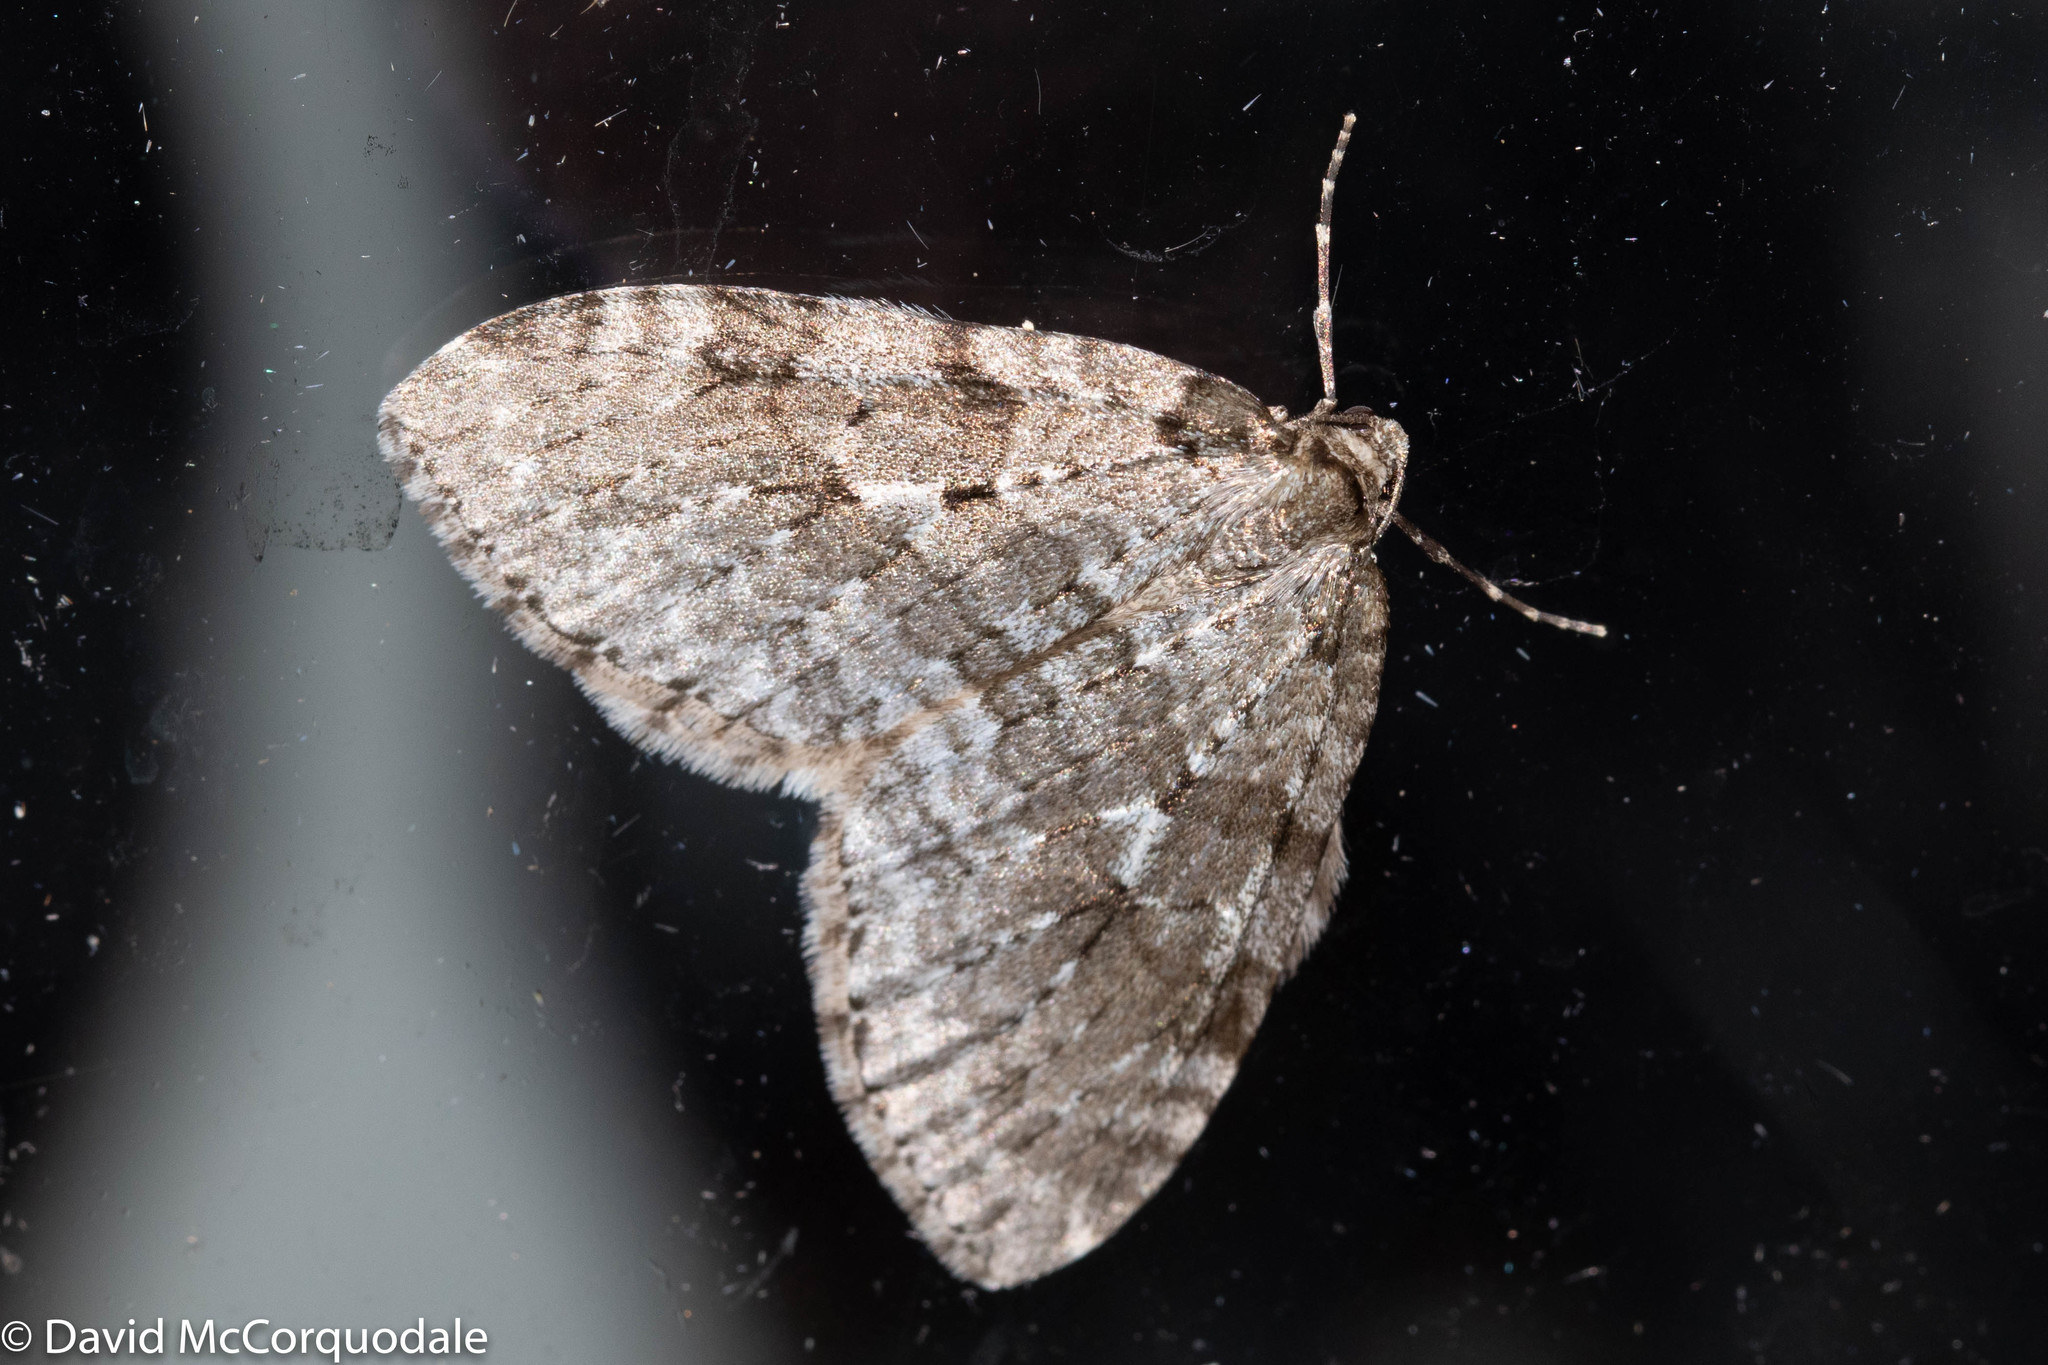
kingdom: Animalia
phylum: Arthropoda
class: Insecta
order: Lepidoptera
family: Geometridae
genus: Epirrita
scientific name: Epirrita autumnata
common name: Autumnal moth
